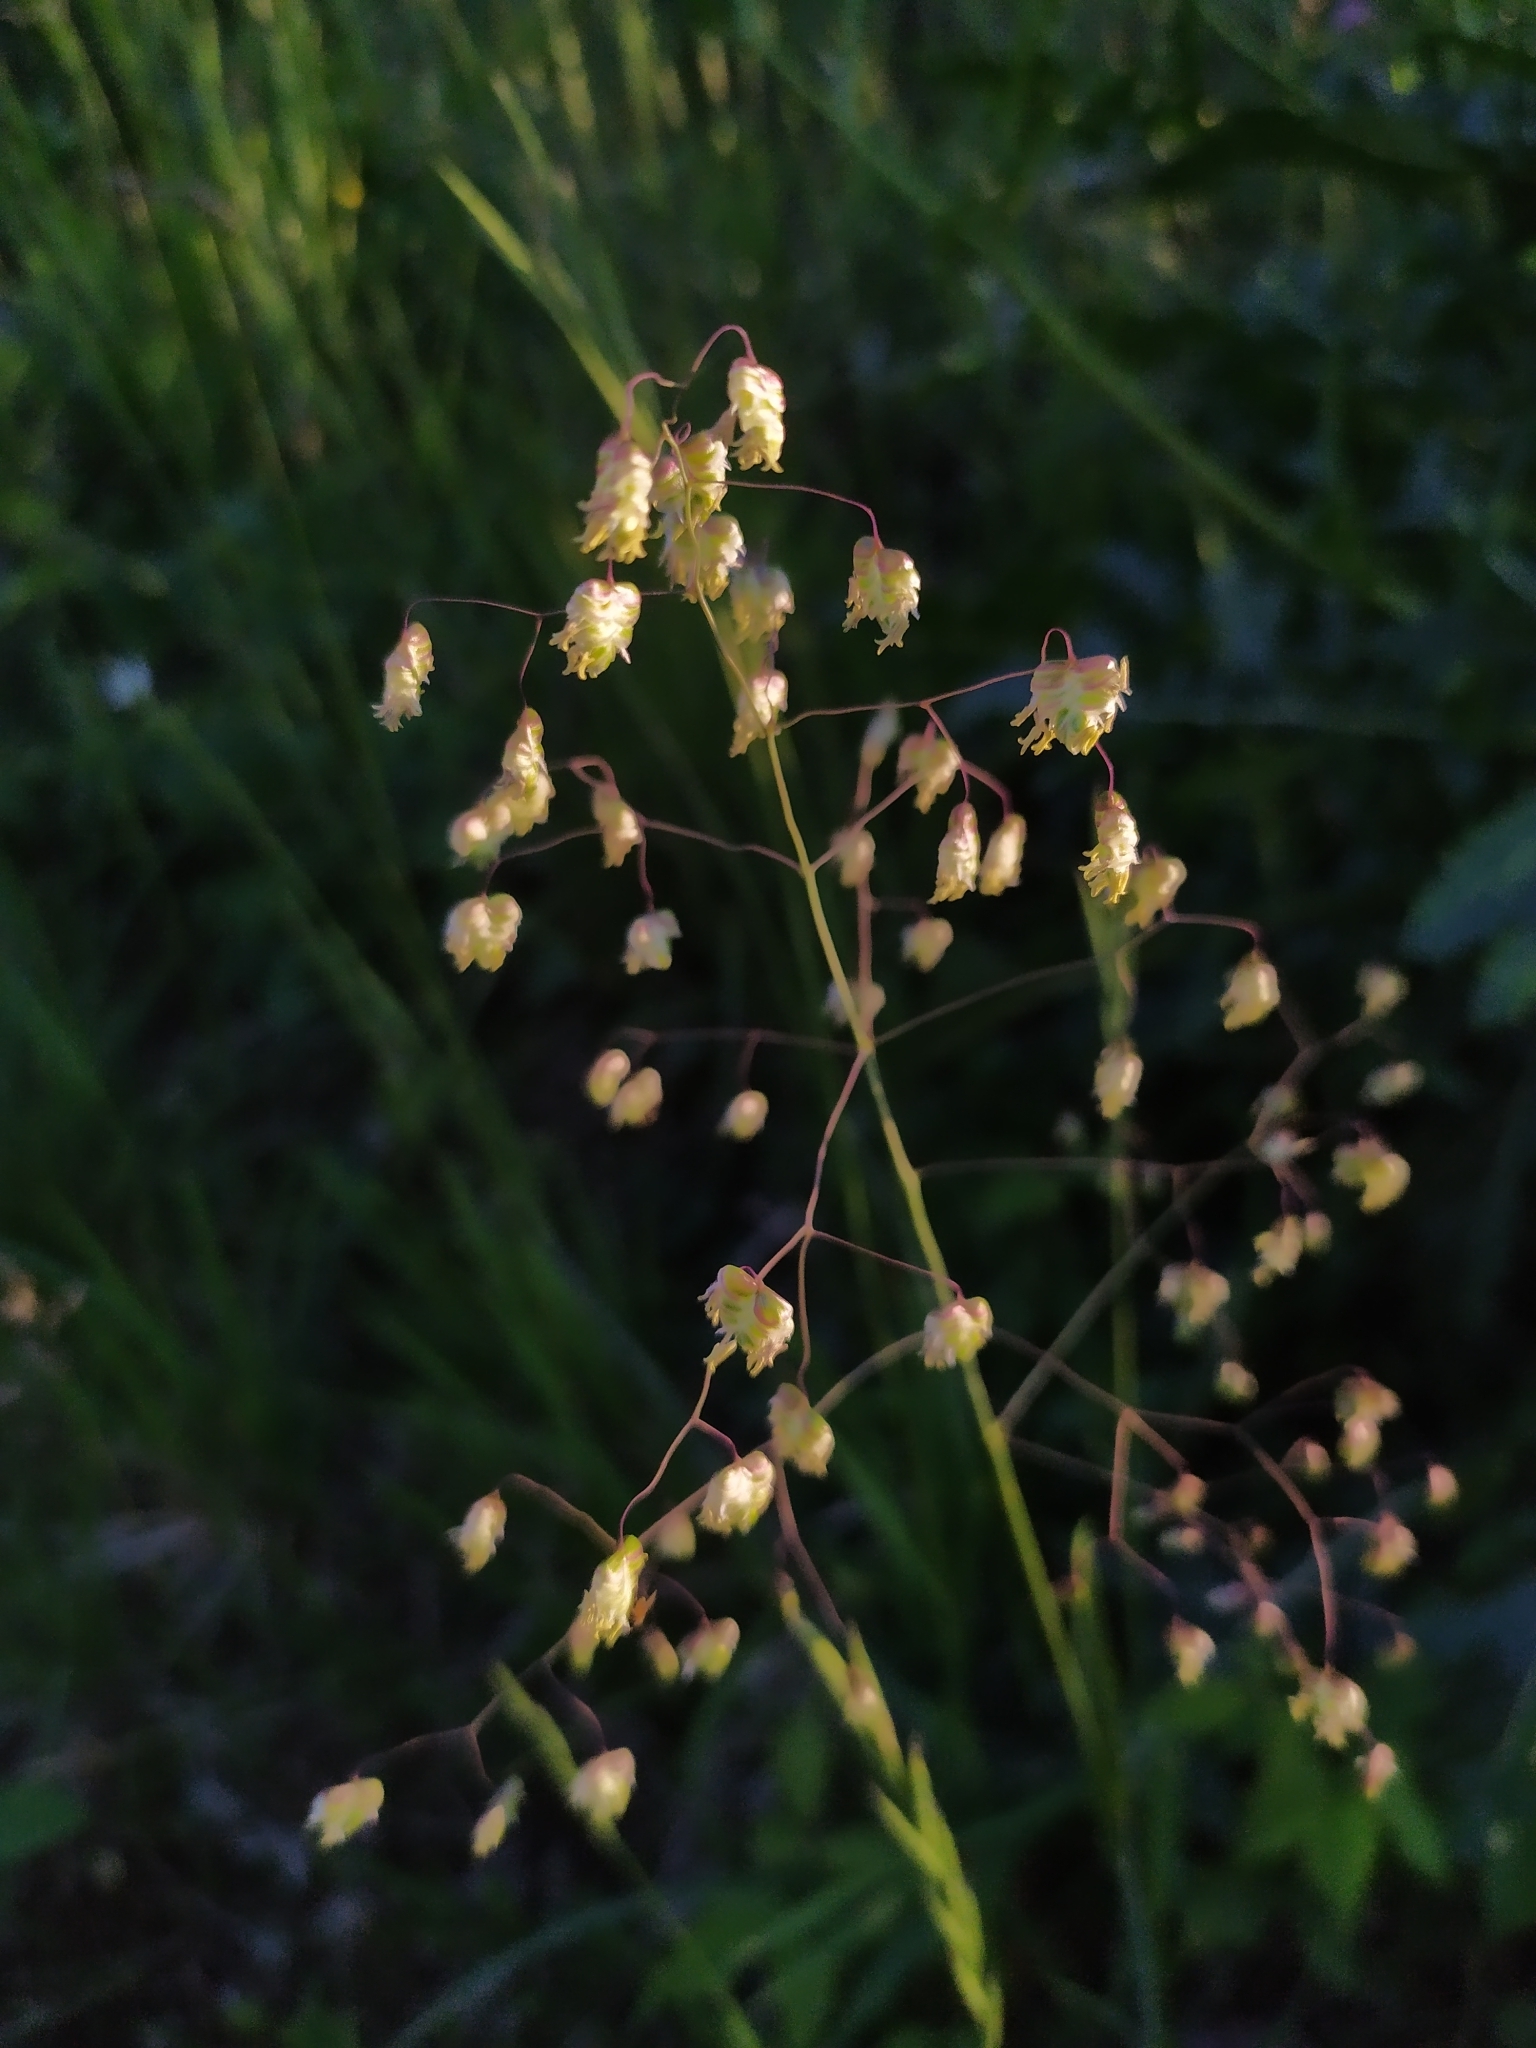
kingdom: Plantae
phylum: Tracheophyta
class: Liliopsida
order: Poales
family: Poaceae
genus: Briza
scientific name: Briza media
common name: Quaking grass
